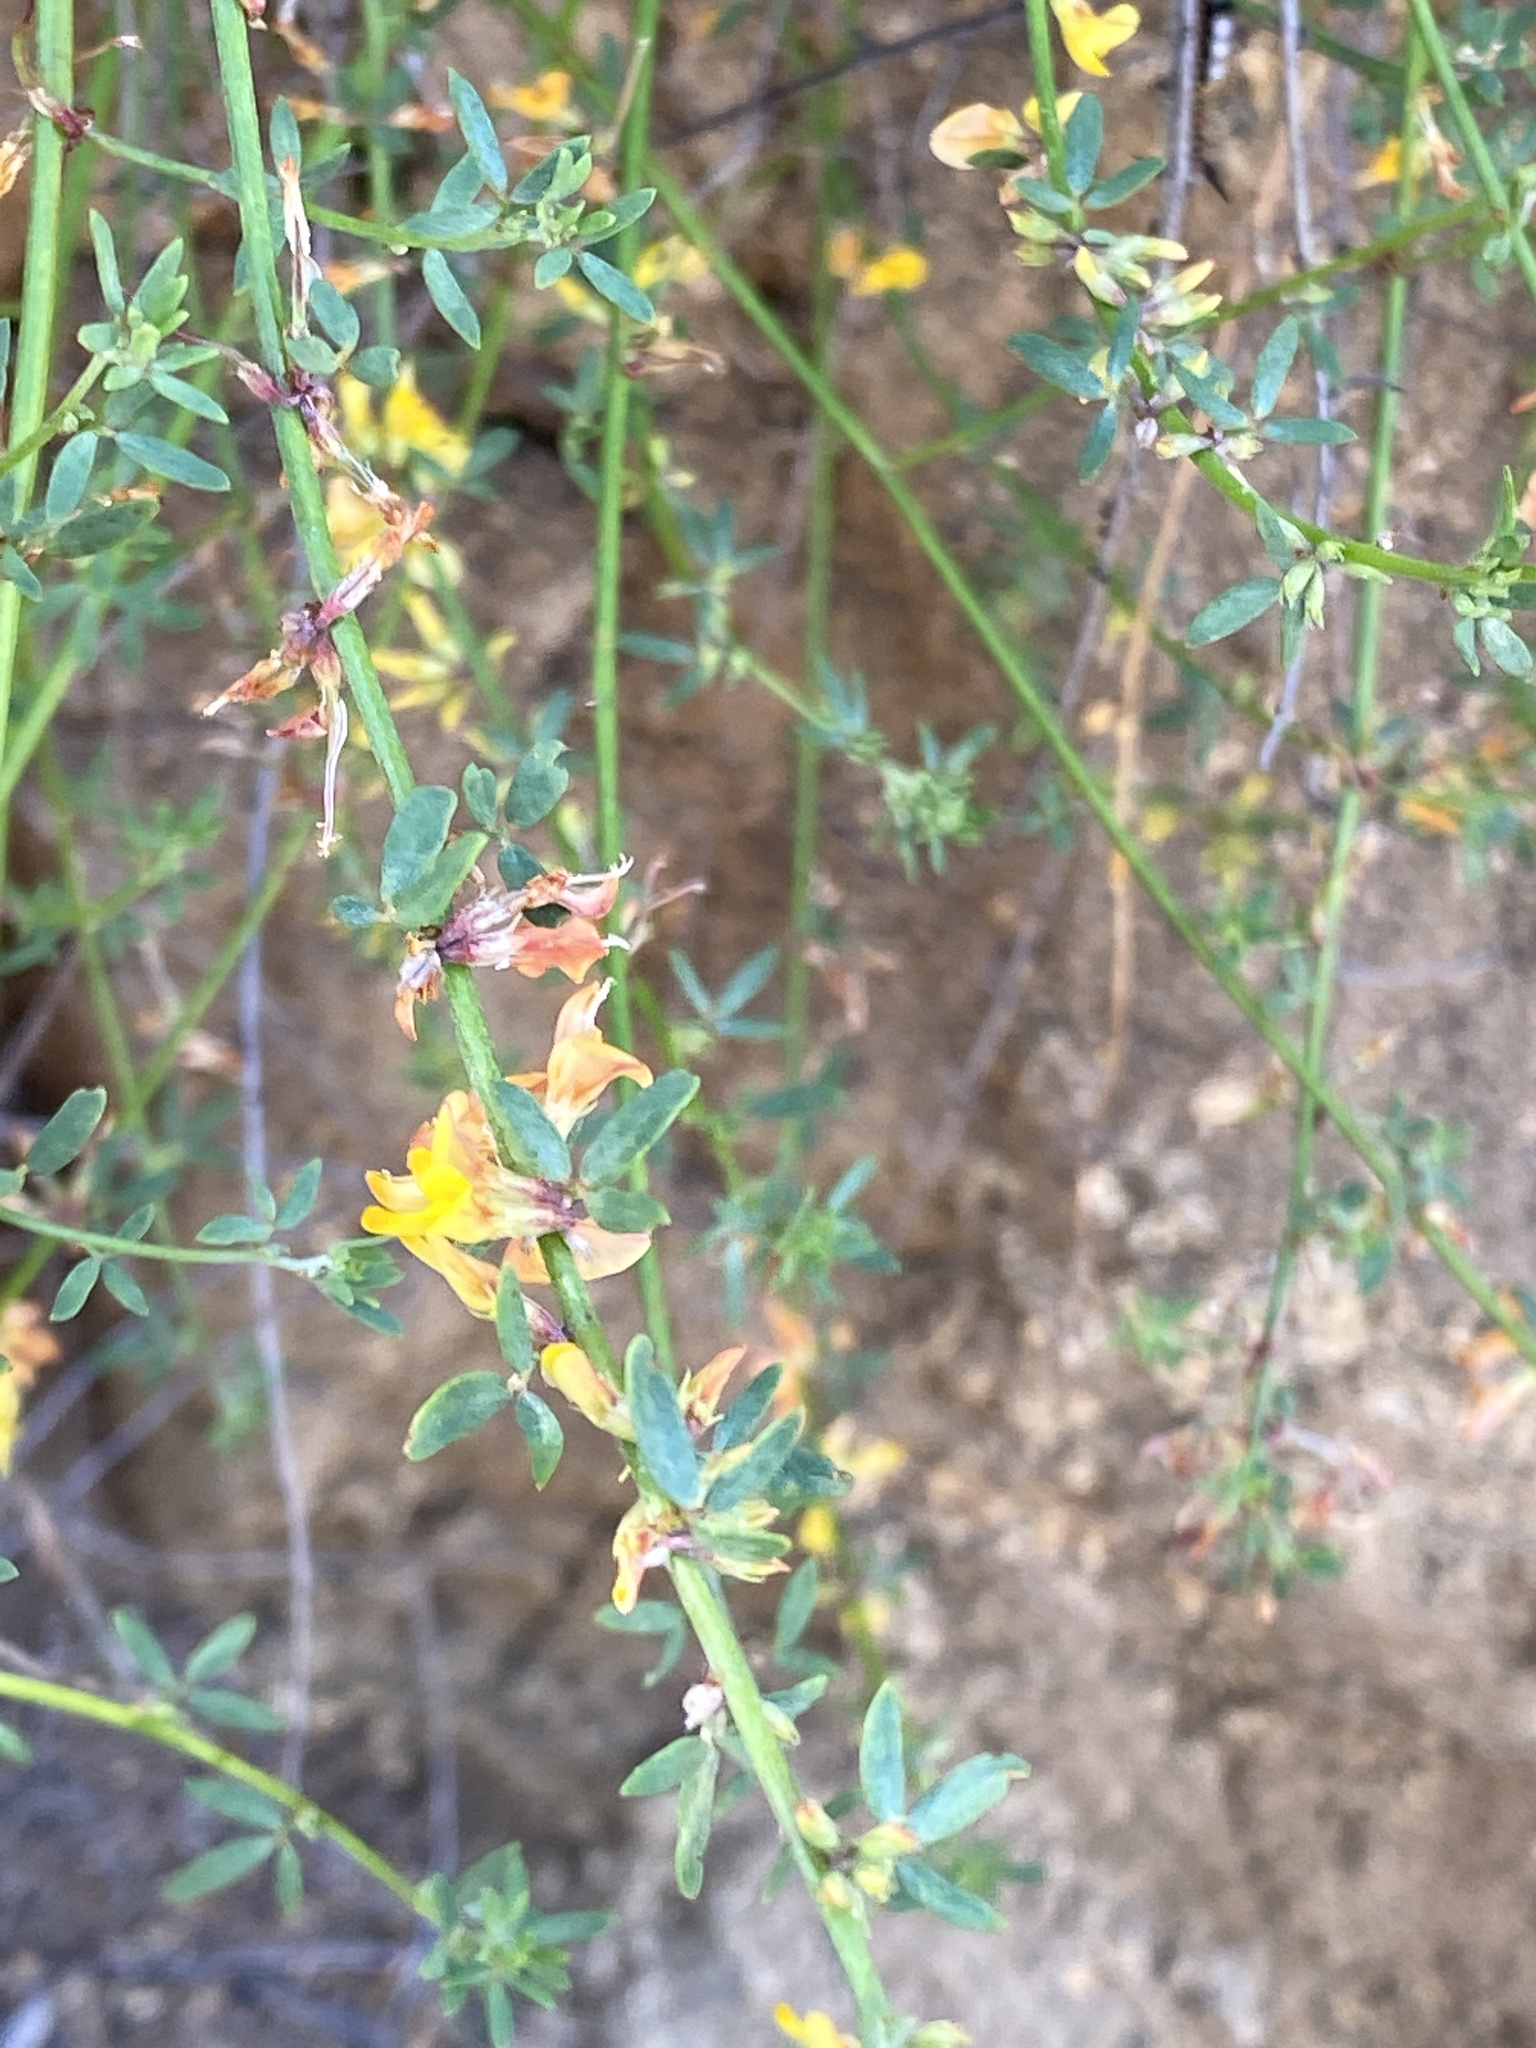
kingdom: Plantae
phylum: Tracheophyta
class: Magnoliopsida
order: Fabales
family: Fabaceae
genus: Acmispon
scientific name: Acmispon glaber
